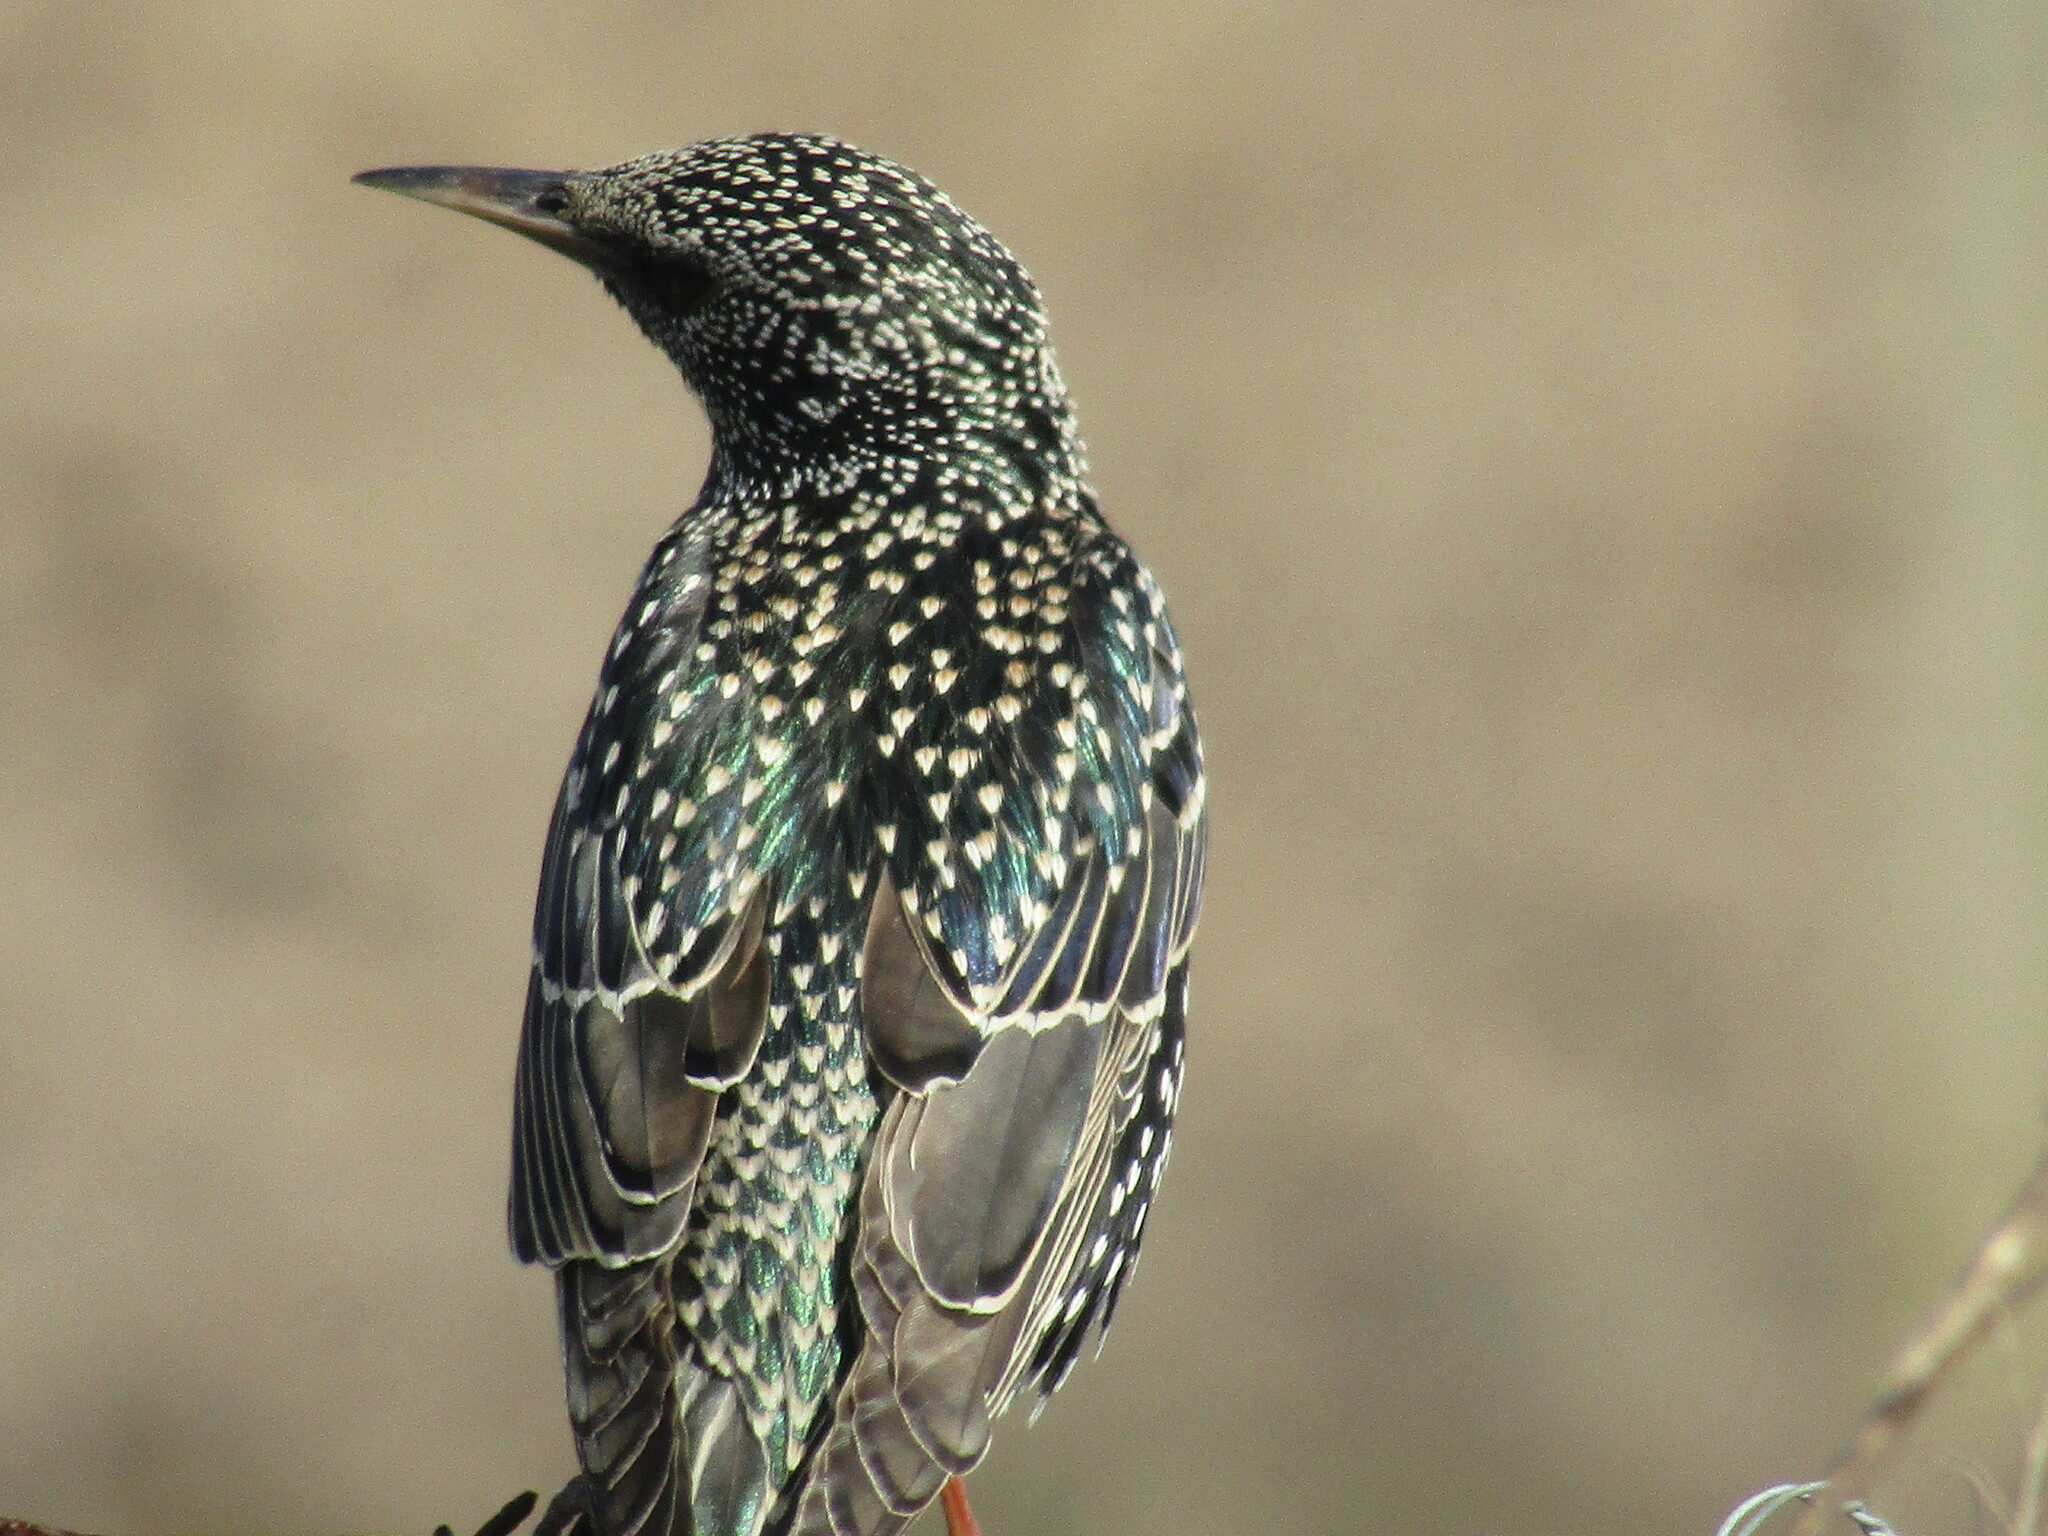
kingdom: Animalia
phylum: Chordata
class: Aves
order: Passeriformes
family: Sturnidae
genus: Sturnus
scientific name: Sturnus vulgaris
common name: Common starling
